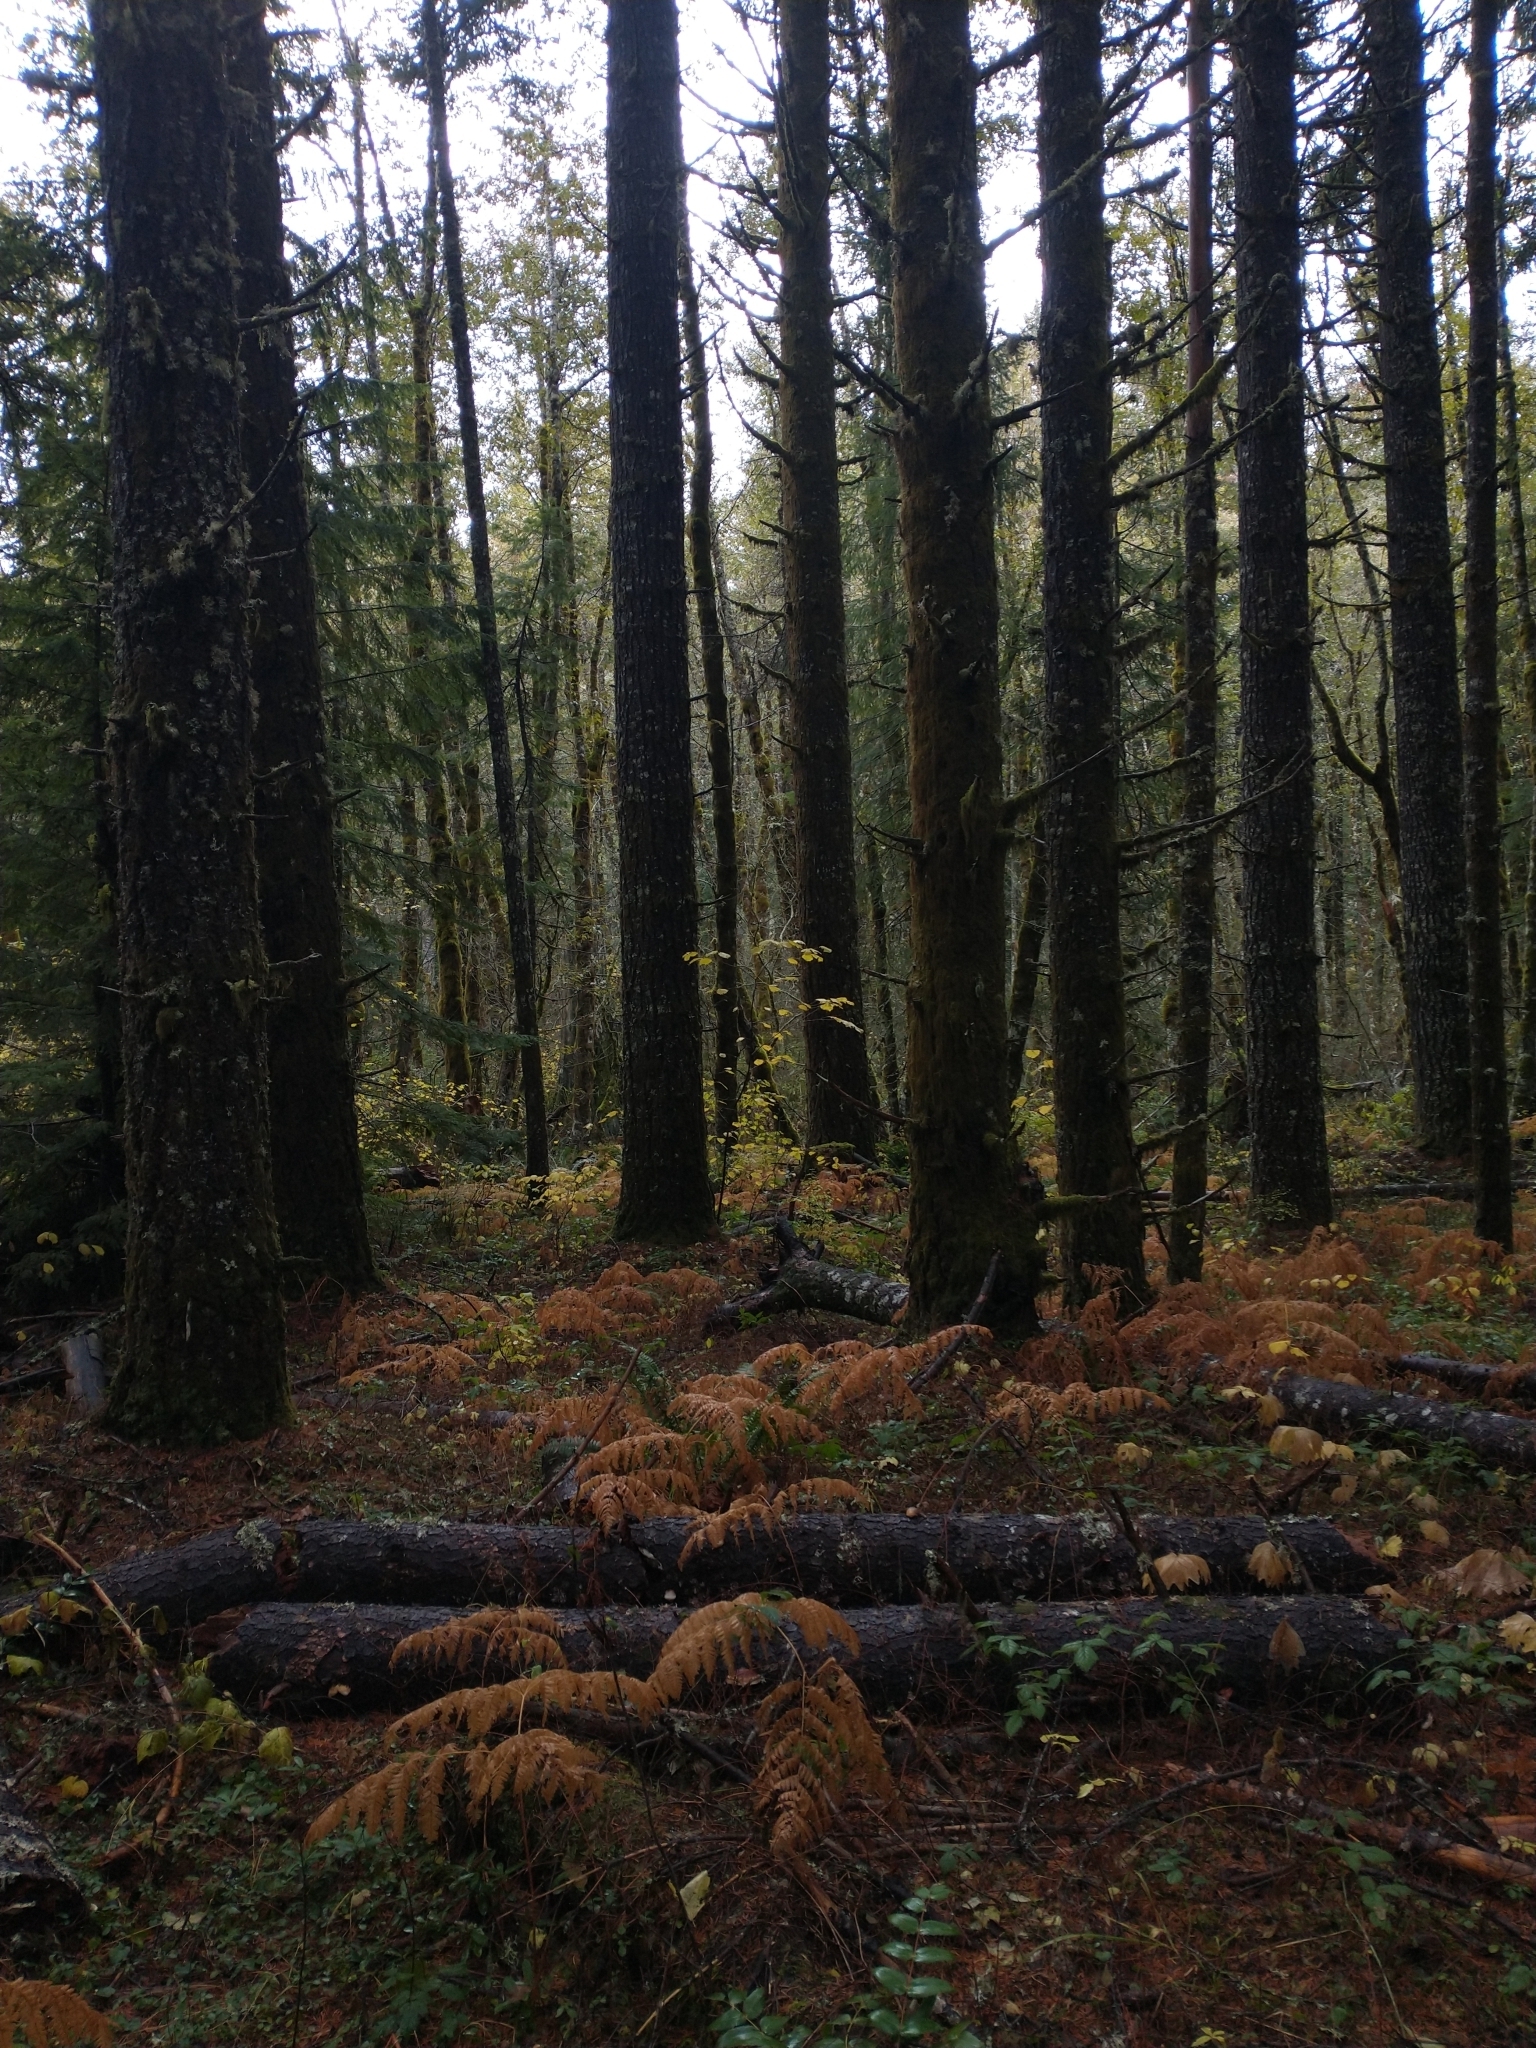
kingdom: Plantae
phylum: Tracheophyta
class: Polypodiopsida
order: Polypodiales
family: Dennstaedtiaceae
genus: Pteridium
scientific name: Pteridium aquilinum
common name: Bracken
